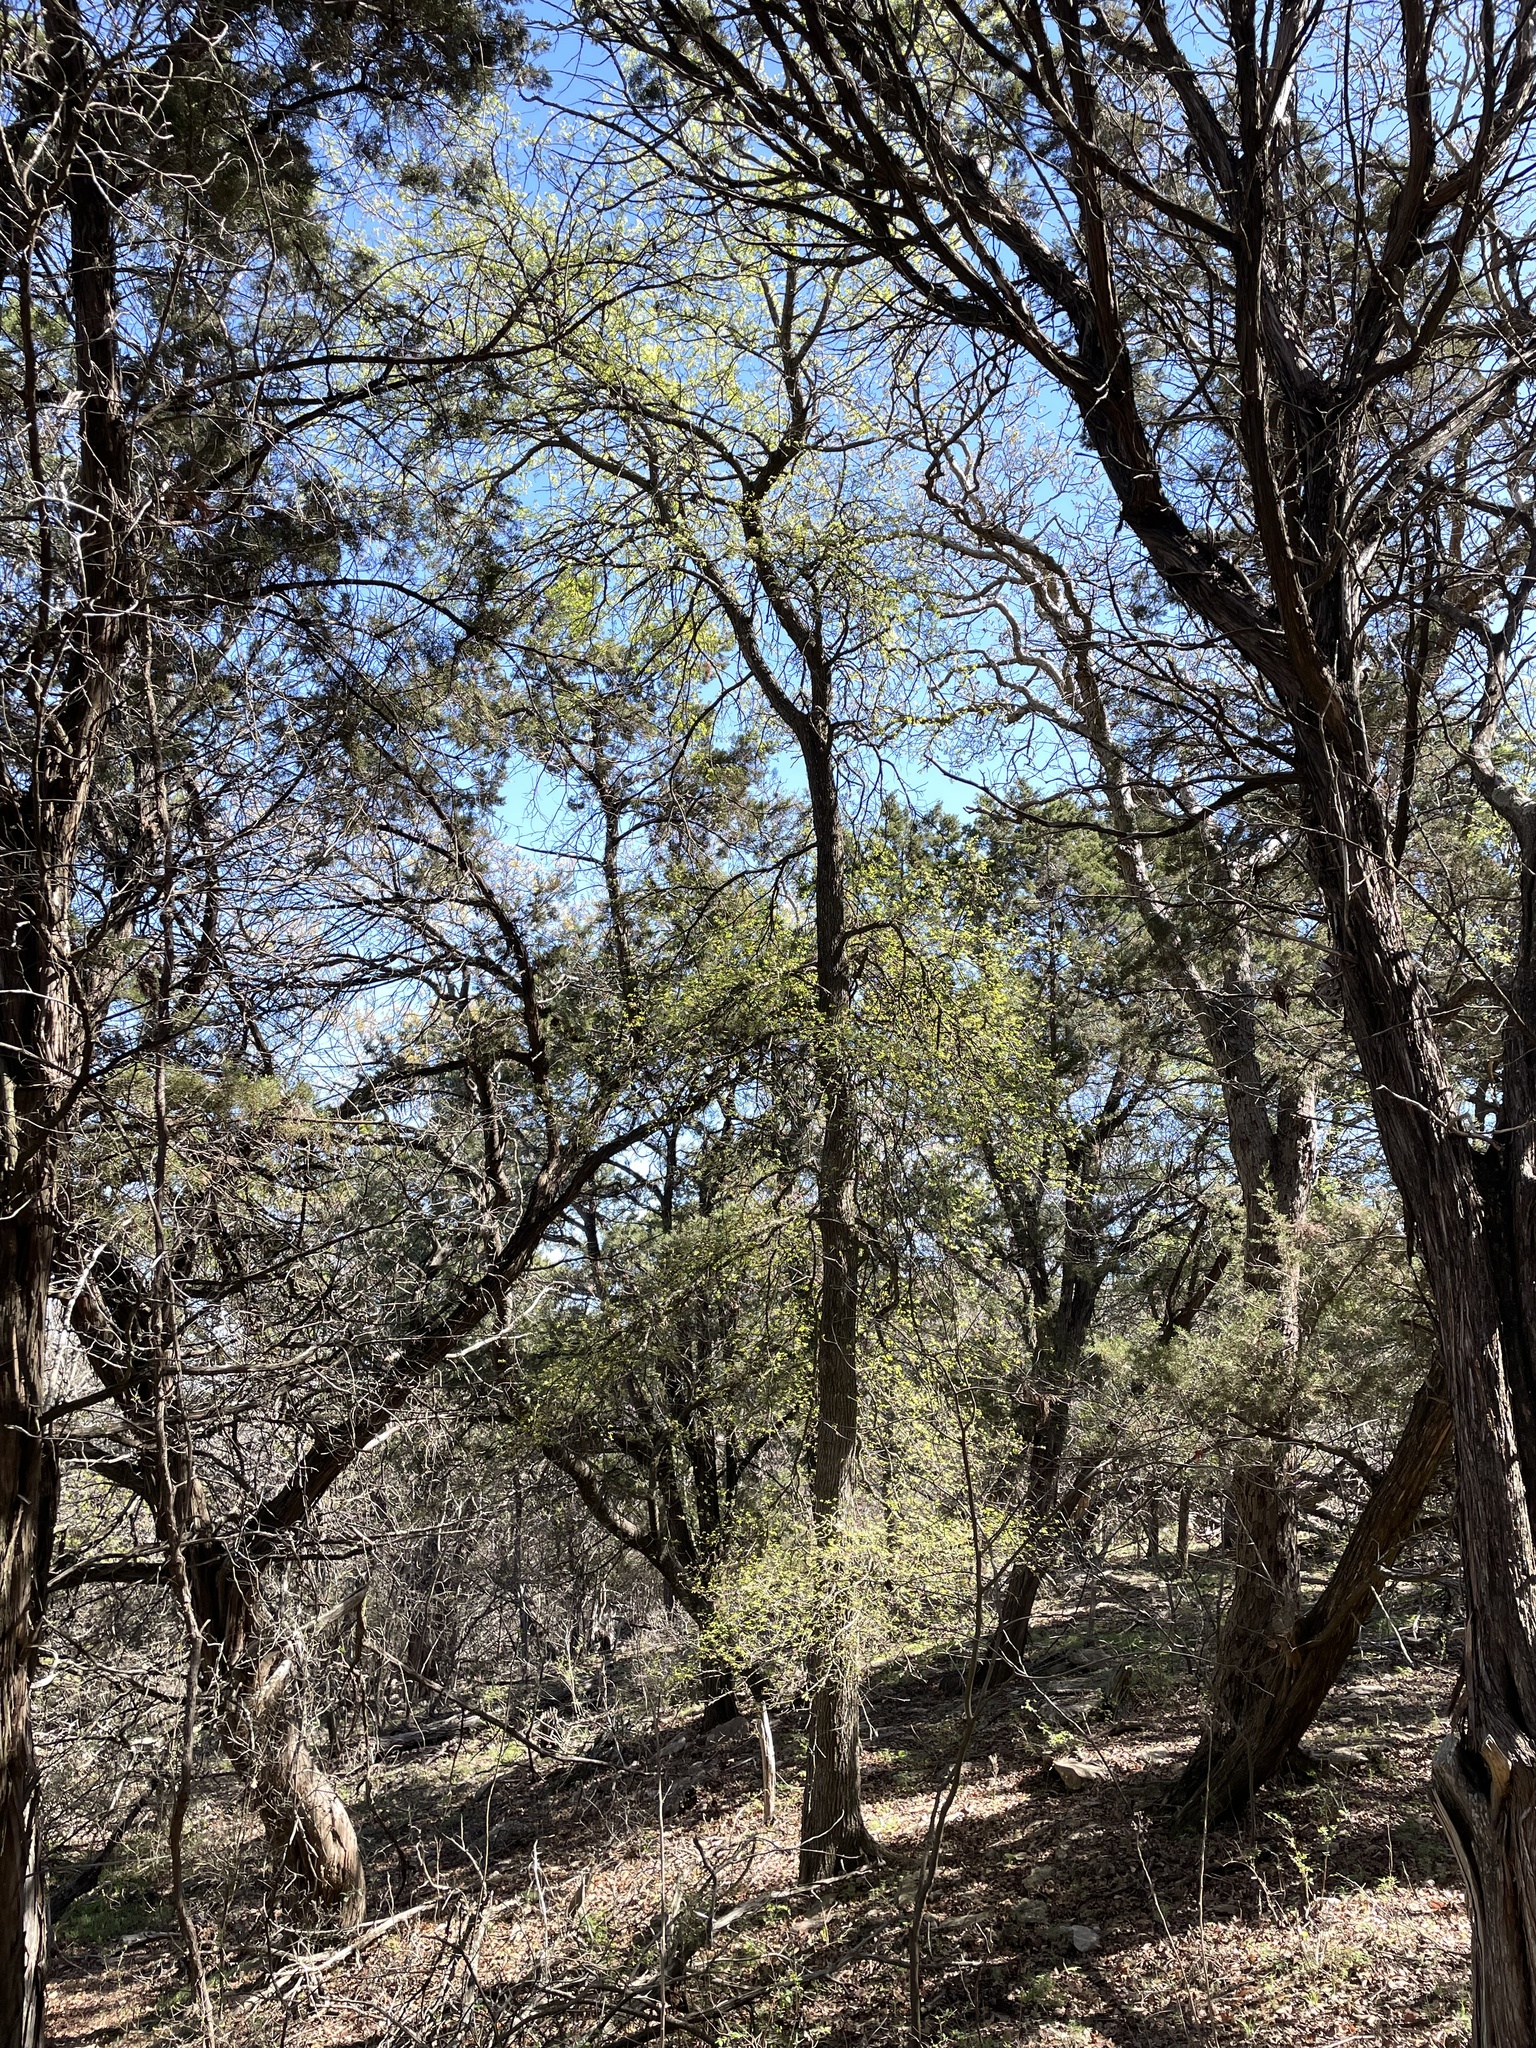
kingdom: Plantae
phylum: Tracheophyta
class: Magnoliopsida
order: Rosales
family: Ulmaceae
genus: Ulmus
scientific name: Ulmus crassifolia
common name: Basket elm
